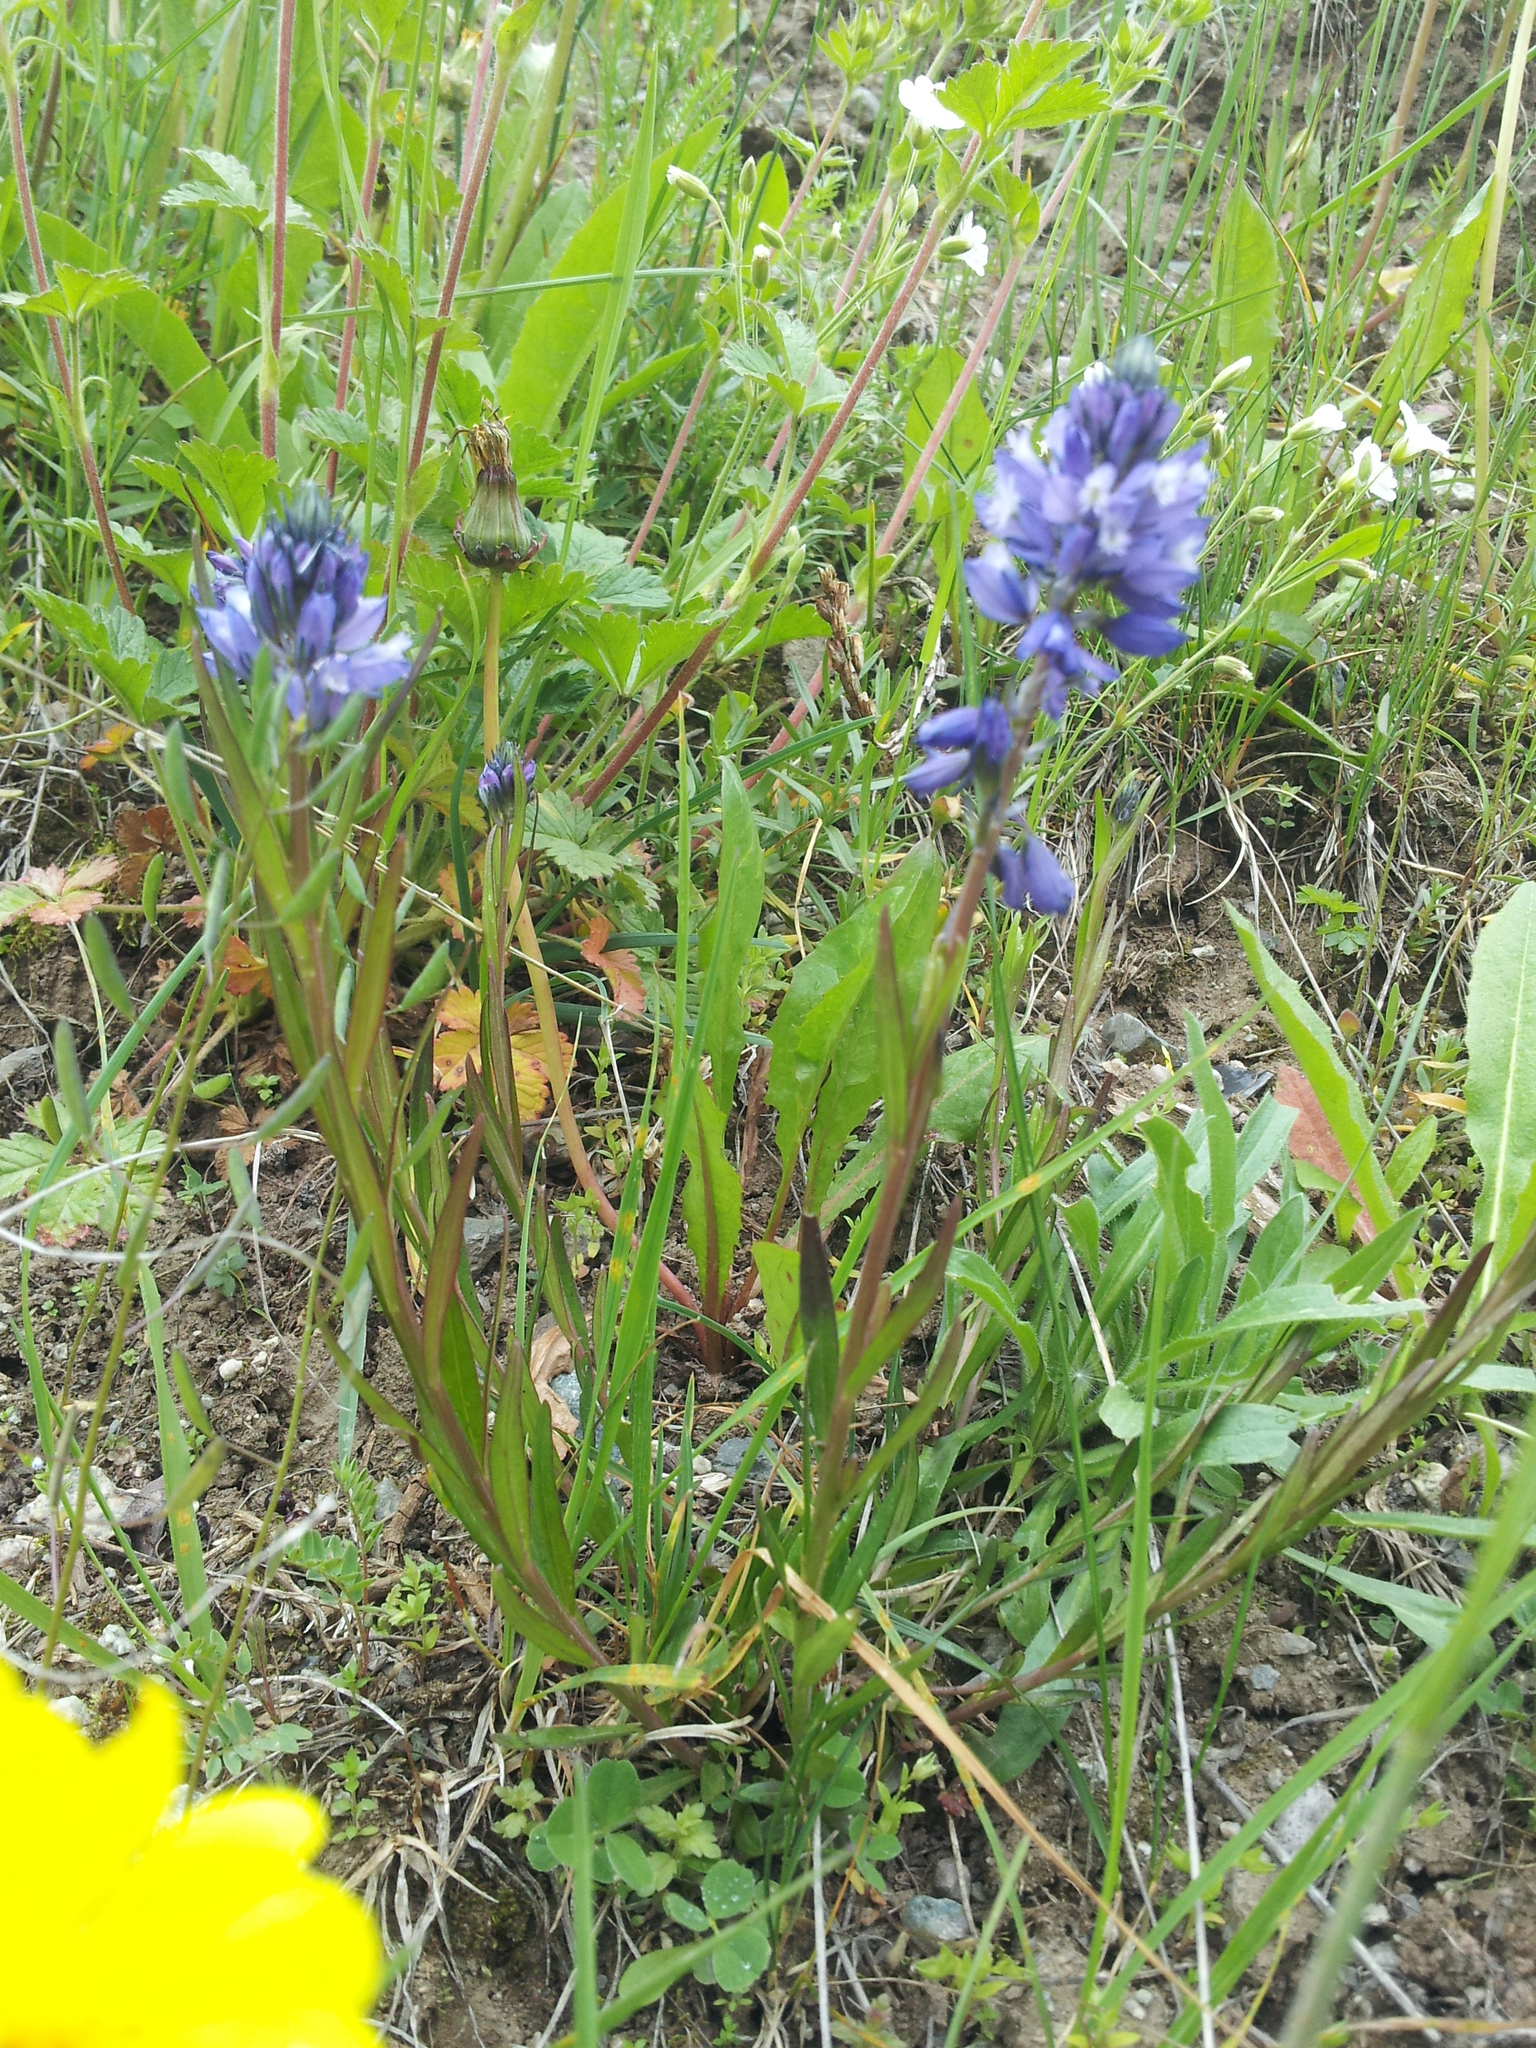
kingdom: Plantae
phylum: Tracheophyta
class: Magnoliopsida
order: Fabales
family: Polygalaceae
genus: Polygala
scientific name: Polygala comosa
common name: Tufted milkwort
